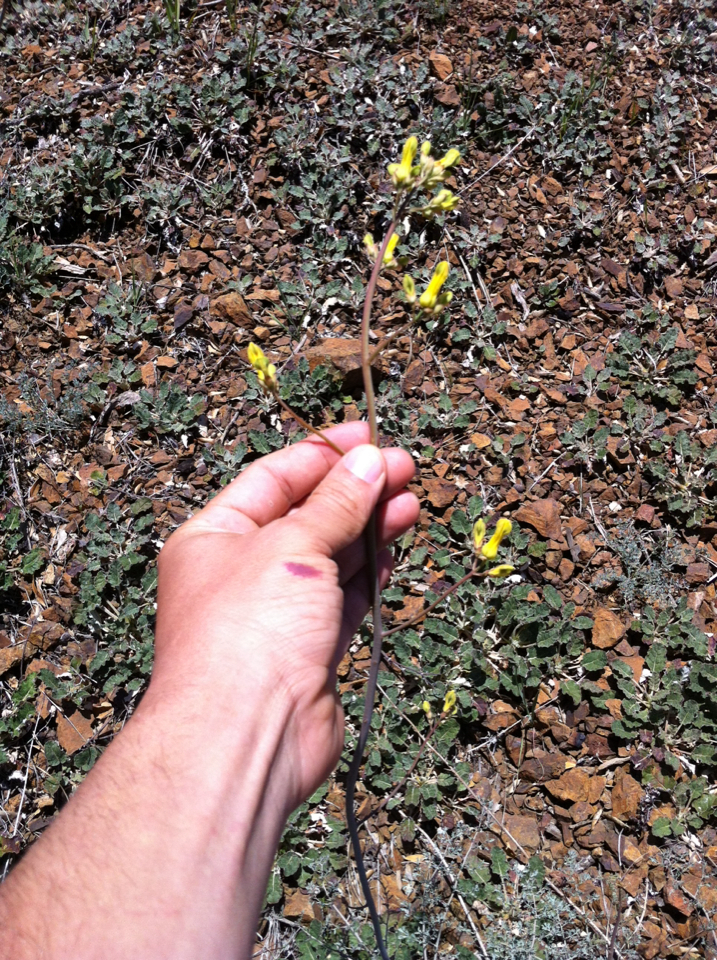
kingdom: Plantae
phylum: Tracheophyta
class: Magnoliopsida
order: Ranunculales
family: Papaveraceae
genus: Ehrendorferia
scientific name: Ehrendorferia chrysantha
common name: Golden eardrops
